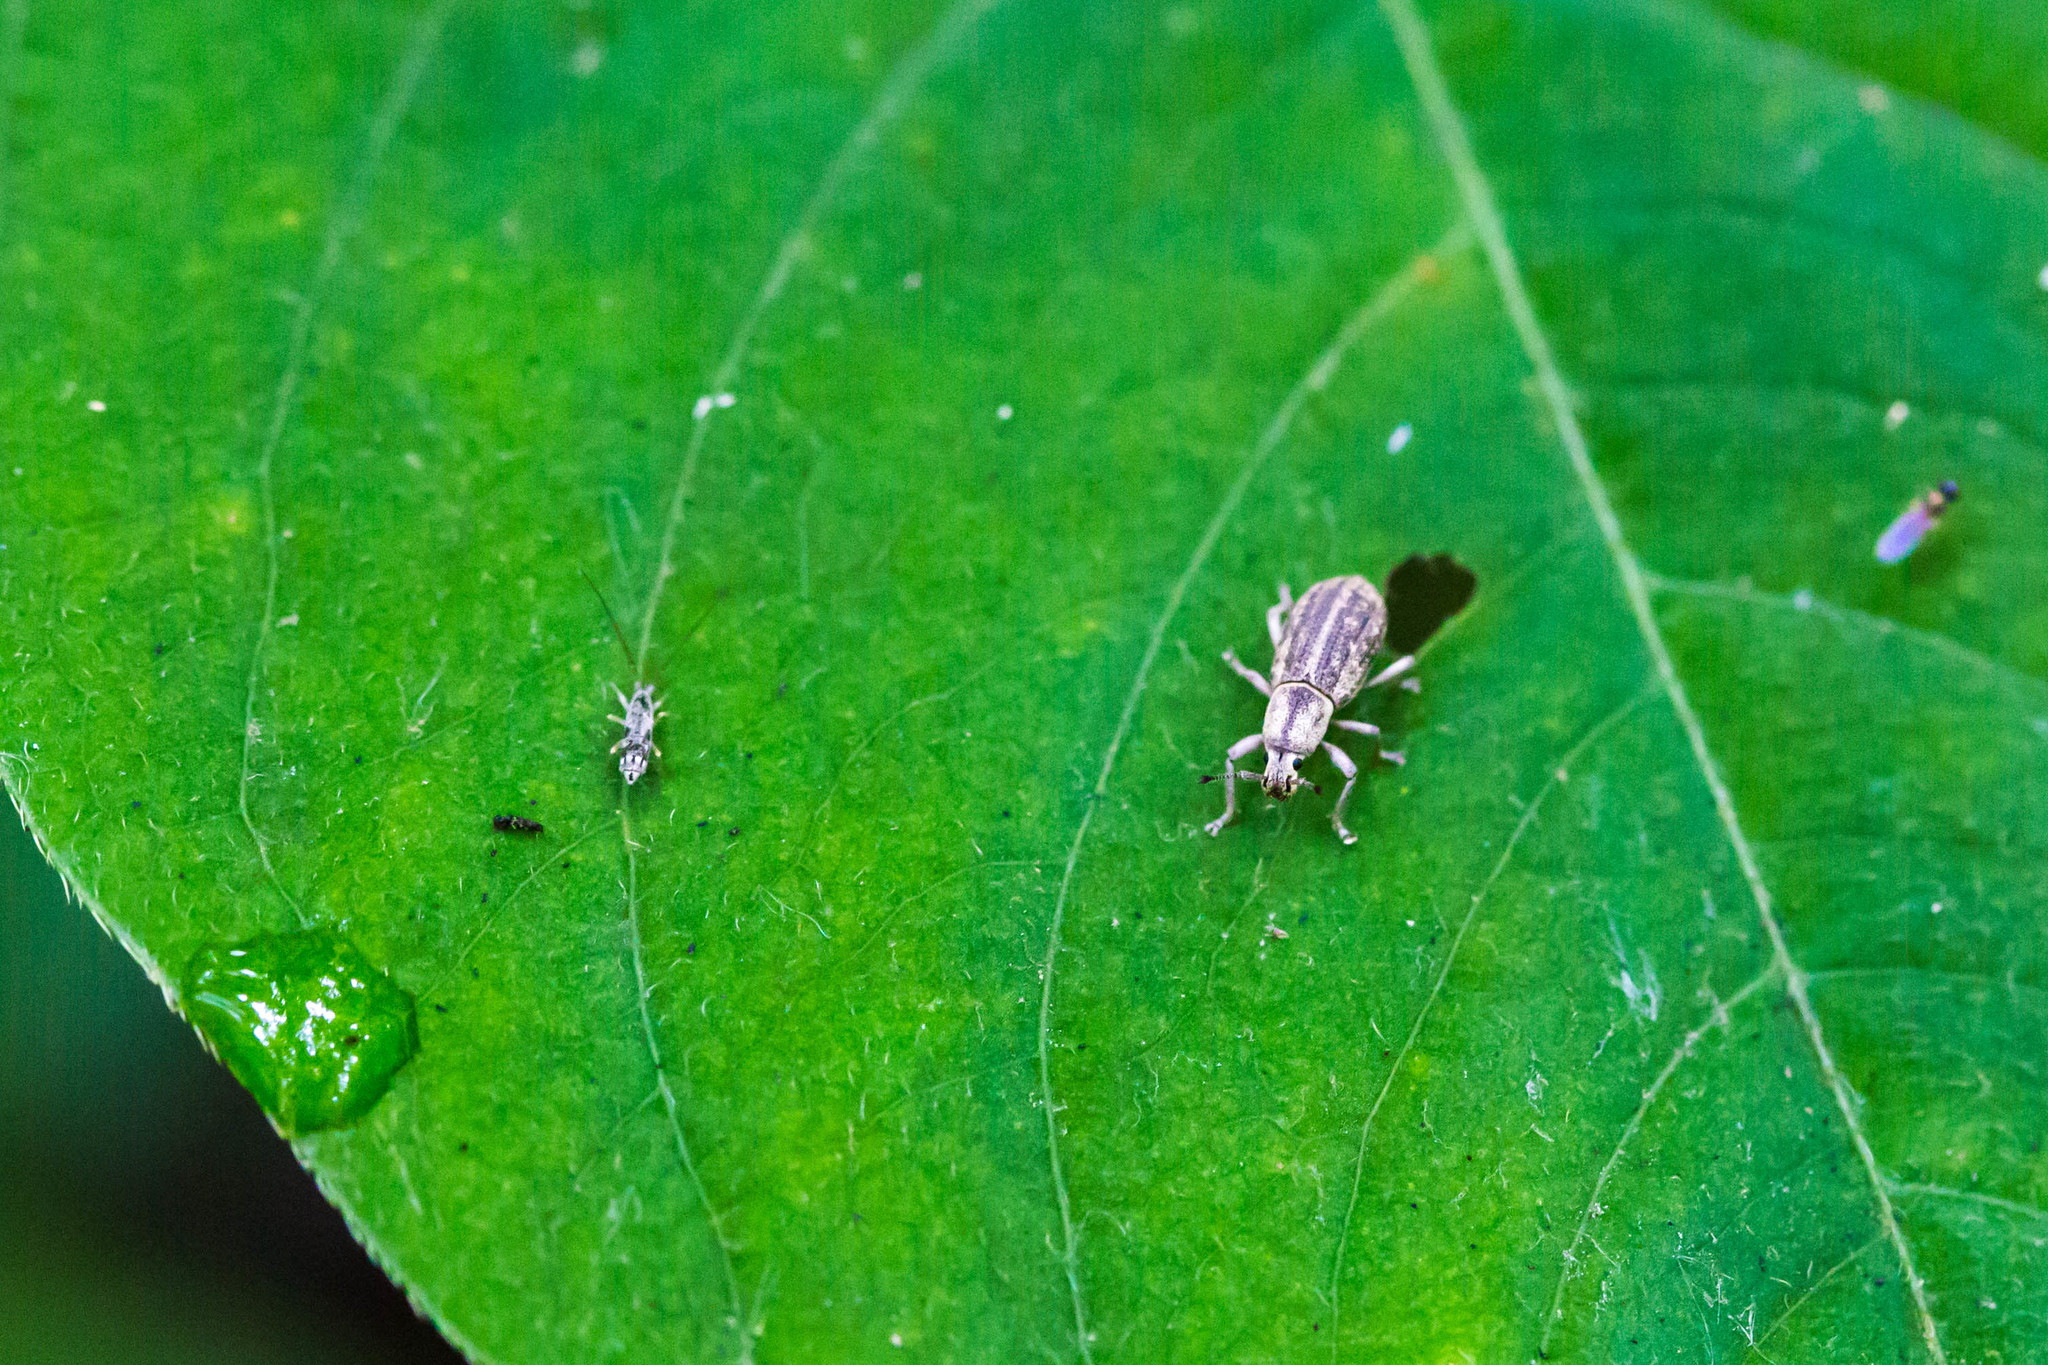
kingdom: Animalia
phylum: Arthropoda
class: Insecta
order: Coleoptera
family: Curculionidae
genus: Aphrastus
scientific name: Aphrastus taeniatus
